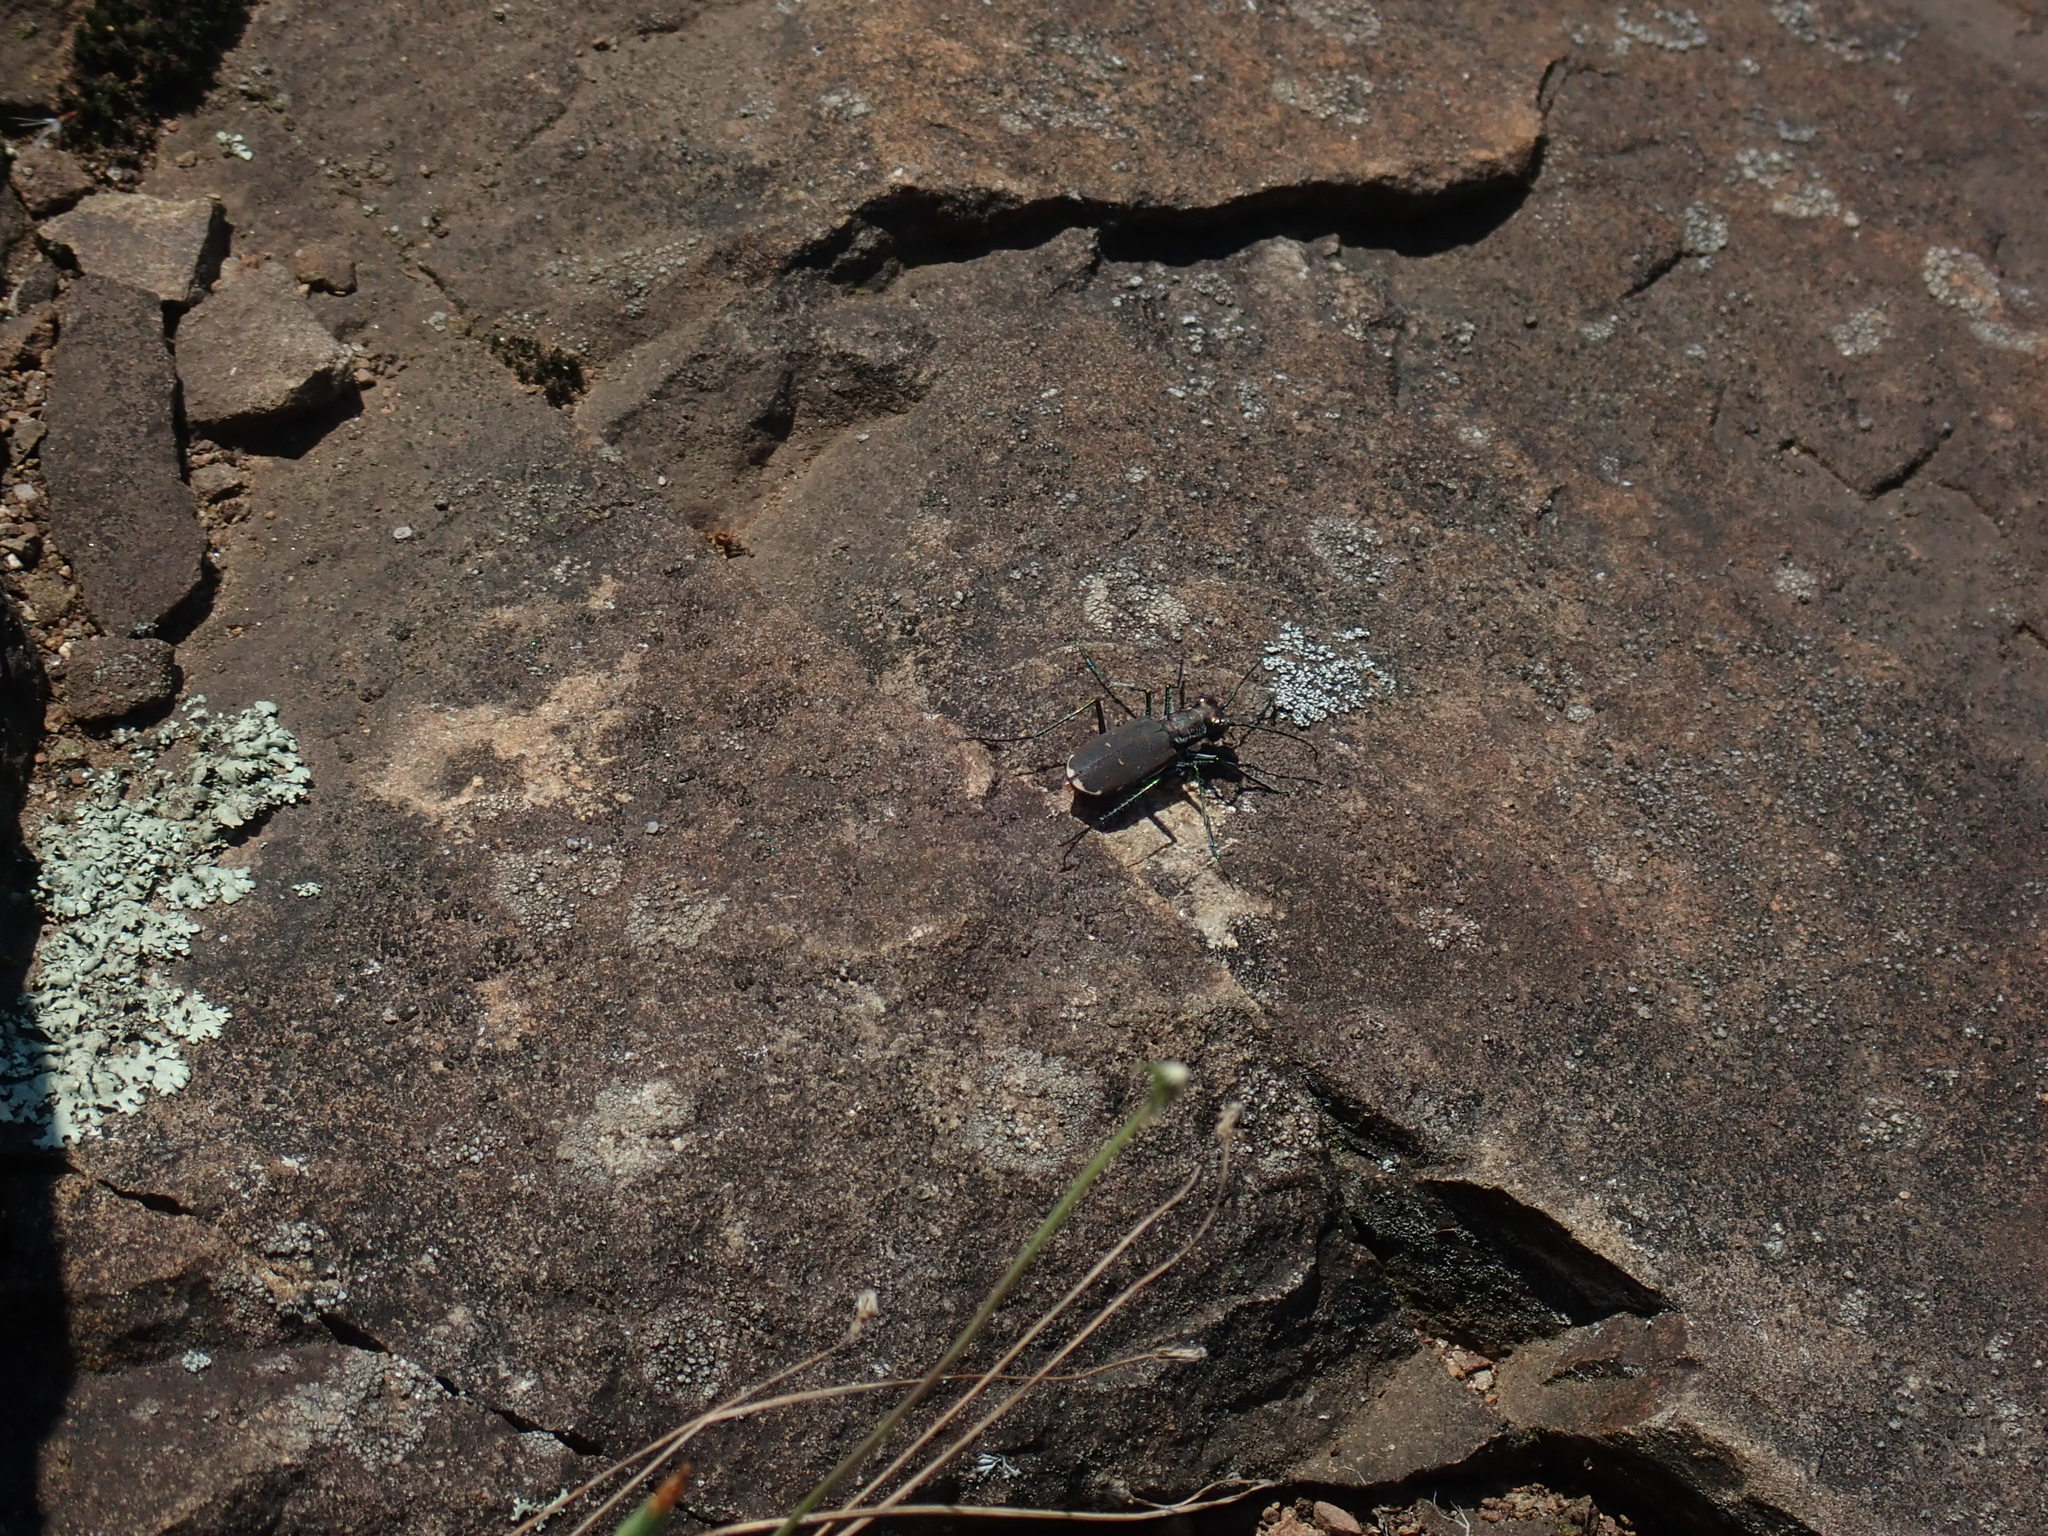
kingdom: Animalia
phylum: Arthropoda
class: Insecta
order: Coleoptera
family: Carabidae
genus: Cicindela
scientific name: Cicindela rufiventris
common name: Eastern red-bellied tiger beetle
